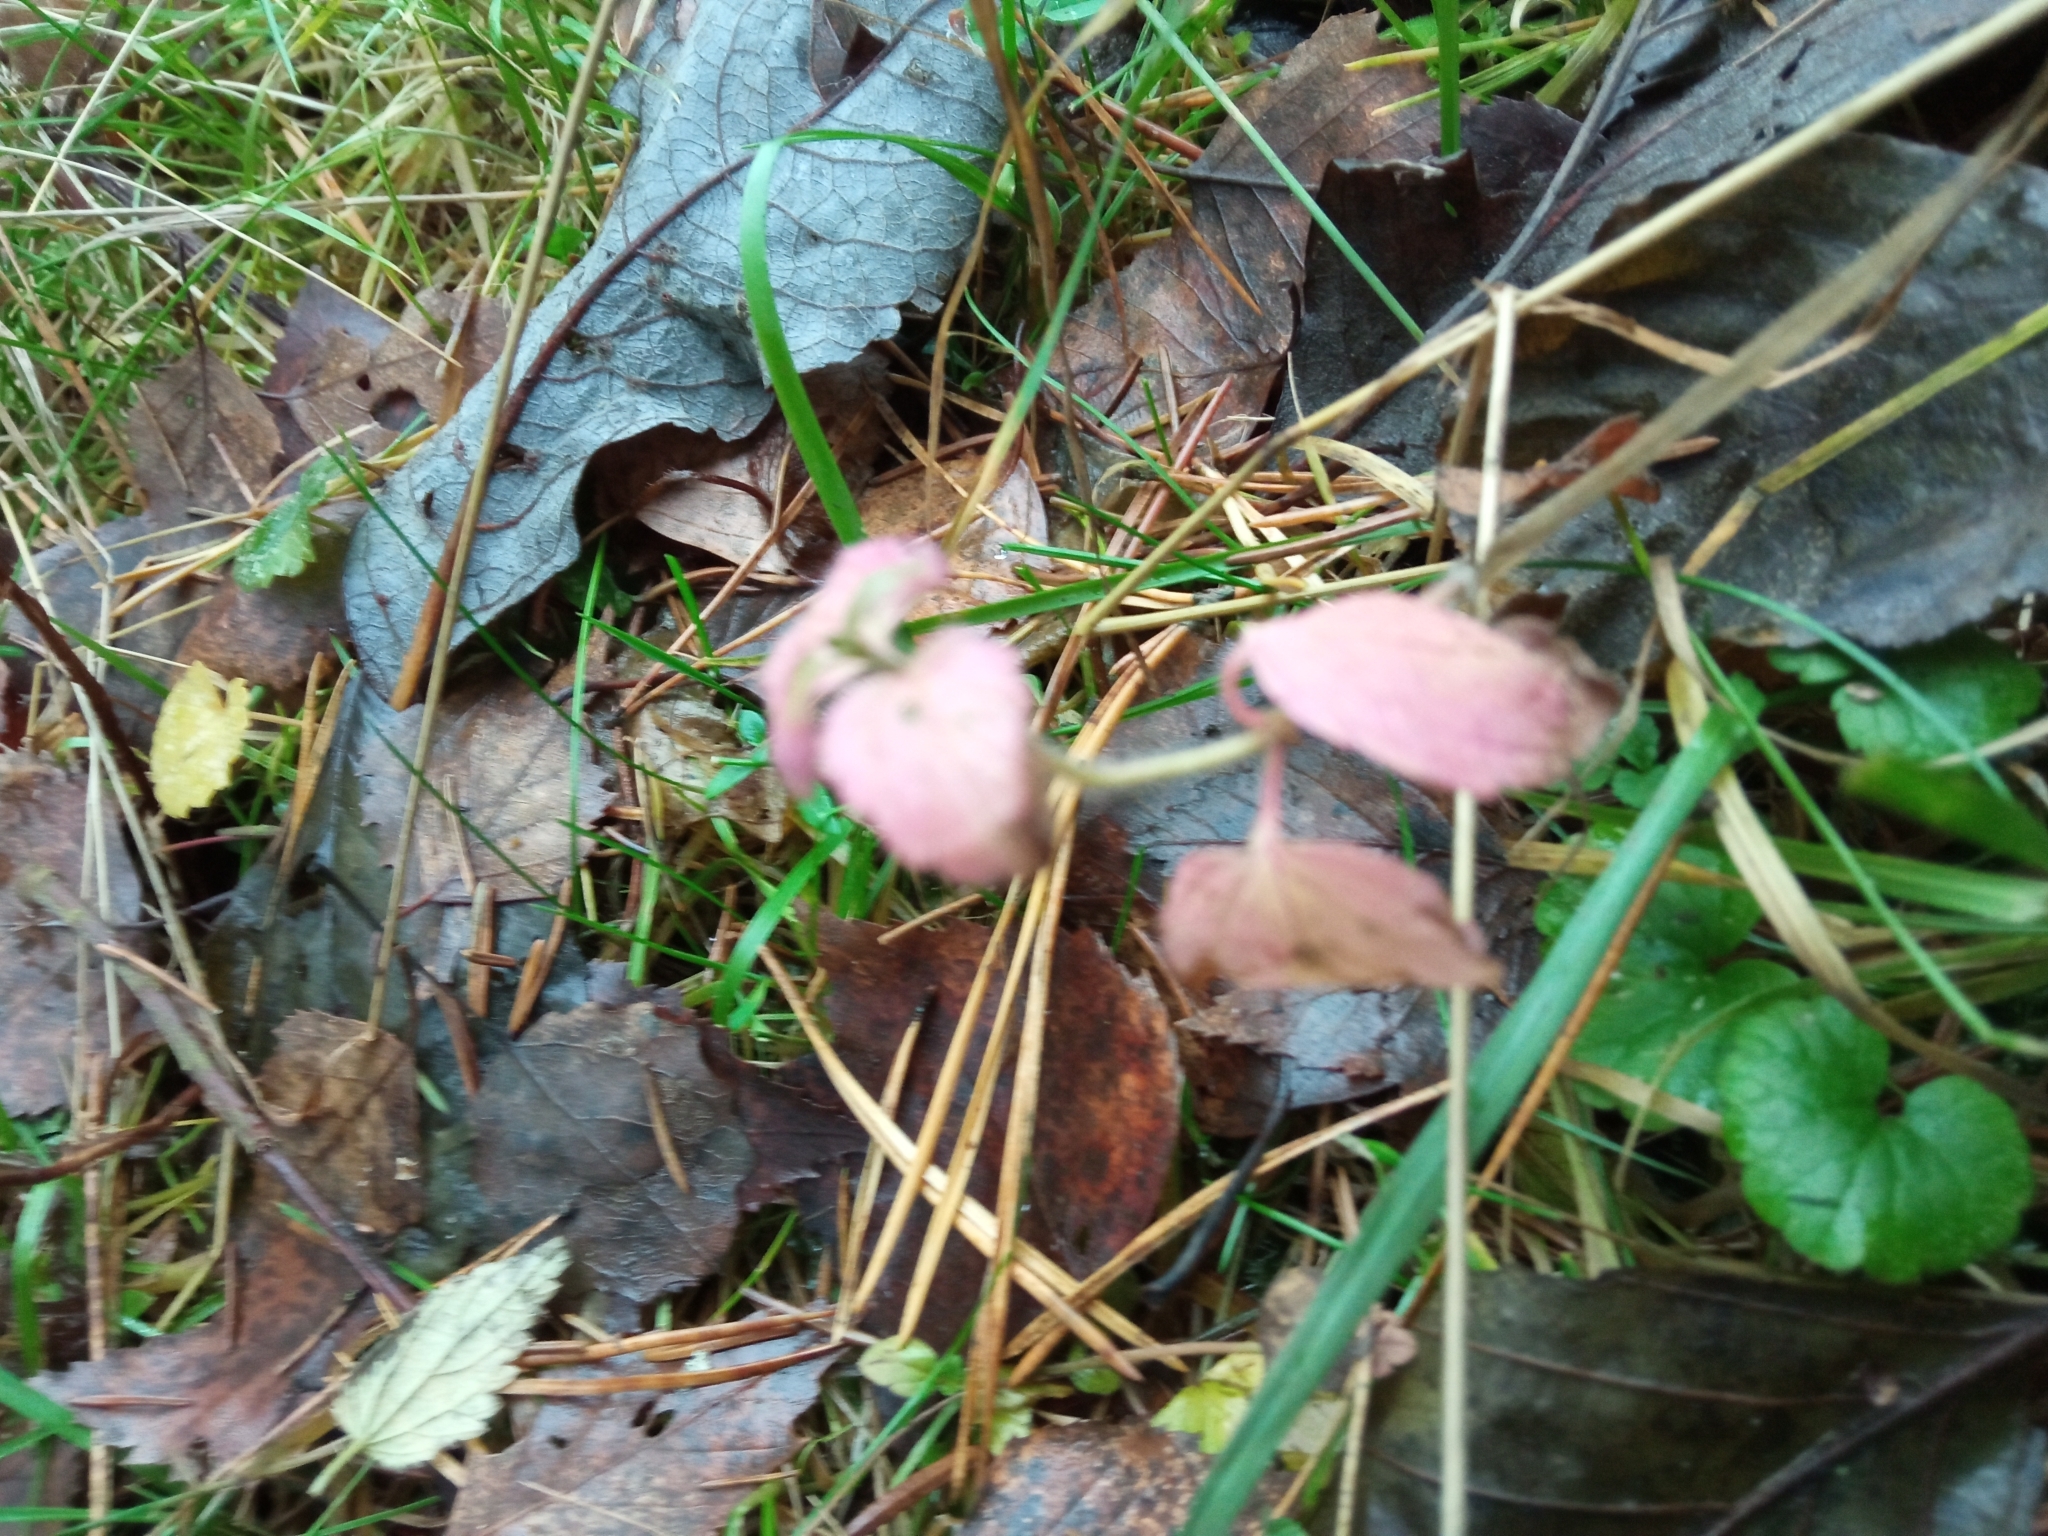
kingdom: Plantae
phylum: Tracheophyta
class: Magnoliopsida
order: Lamiales
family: Plantaginaceae
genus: Veronica
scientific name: Veronica chamaedrys
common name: Germander speedwell
